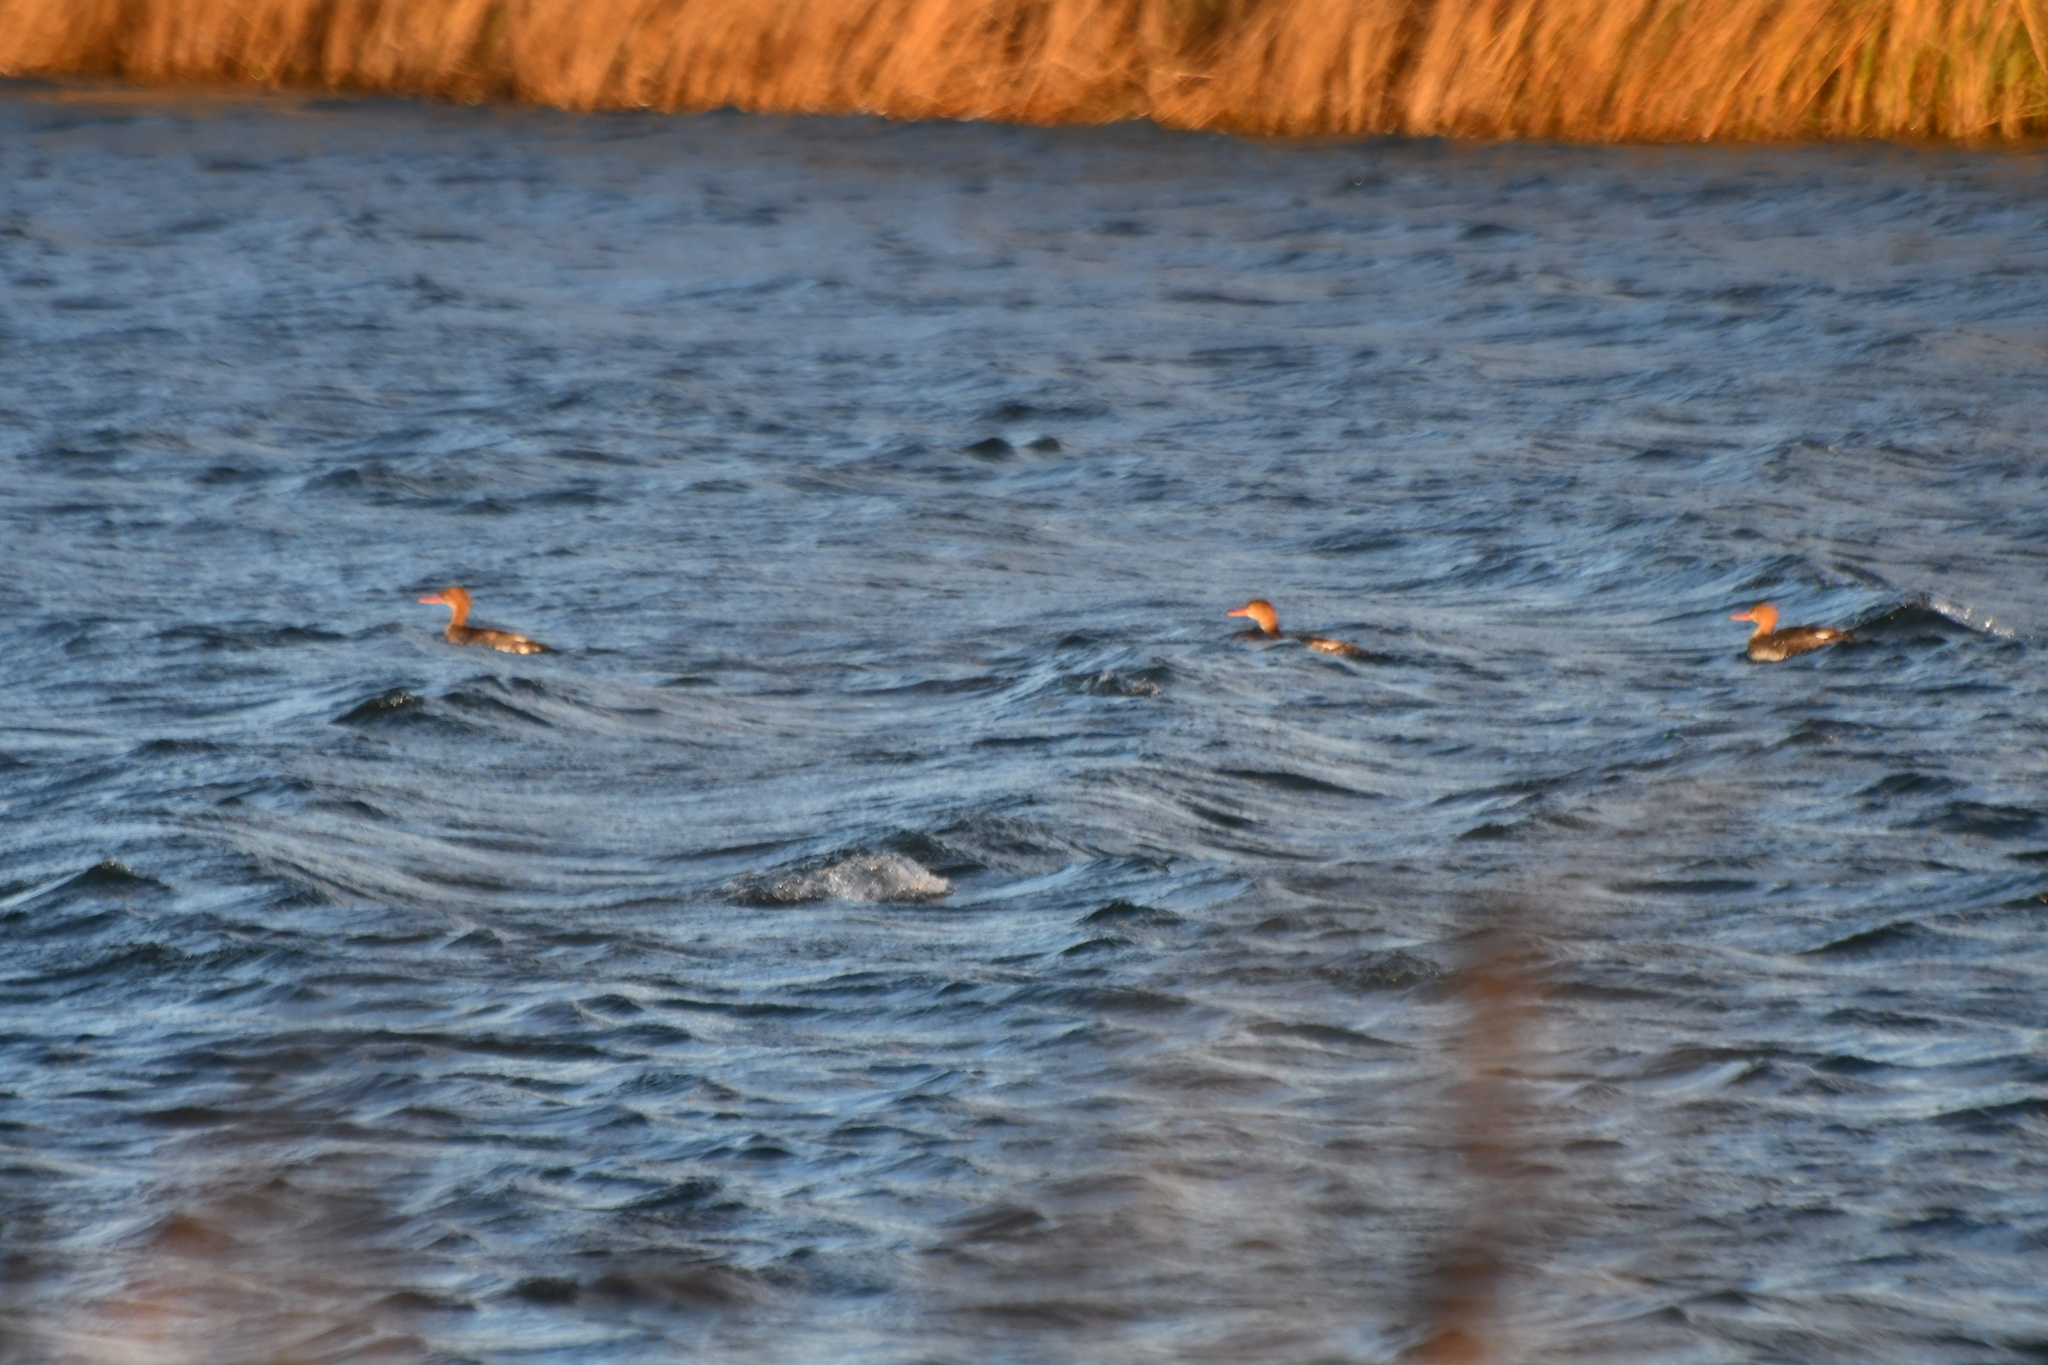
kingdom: Animalia
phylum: Chordata
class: Aves
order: Anseriformes
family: Anatidae
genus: Mergus
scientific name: Mergus serrator
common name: Red-breasted merganser
